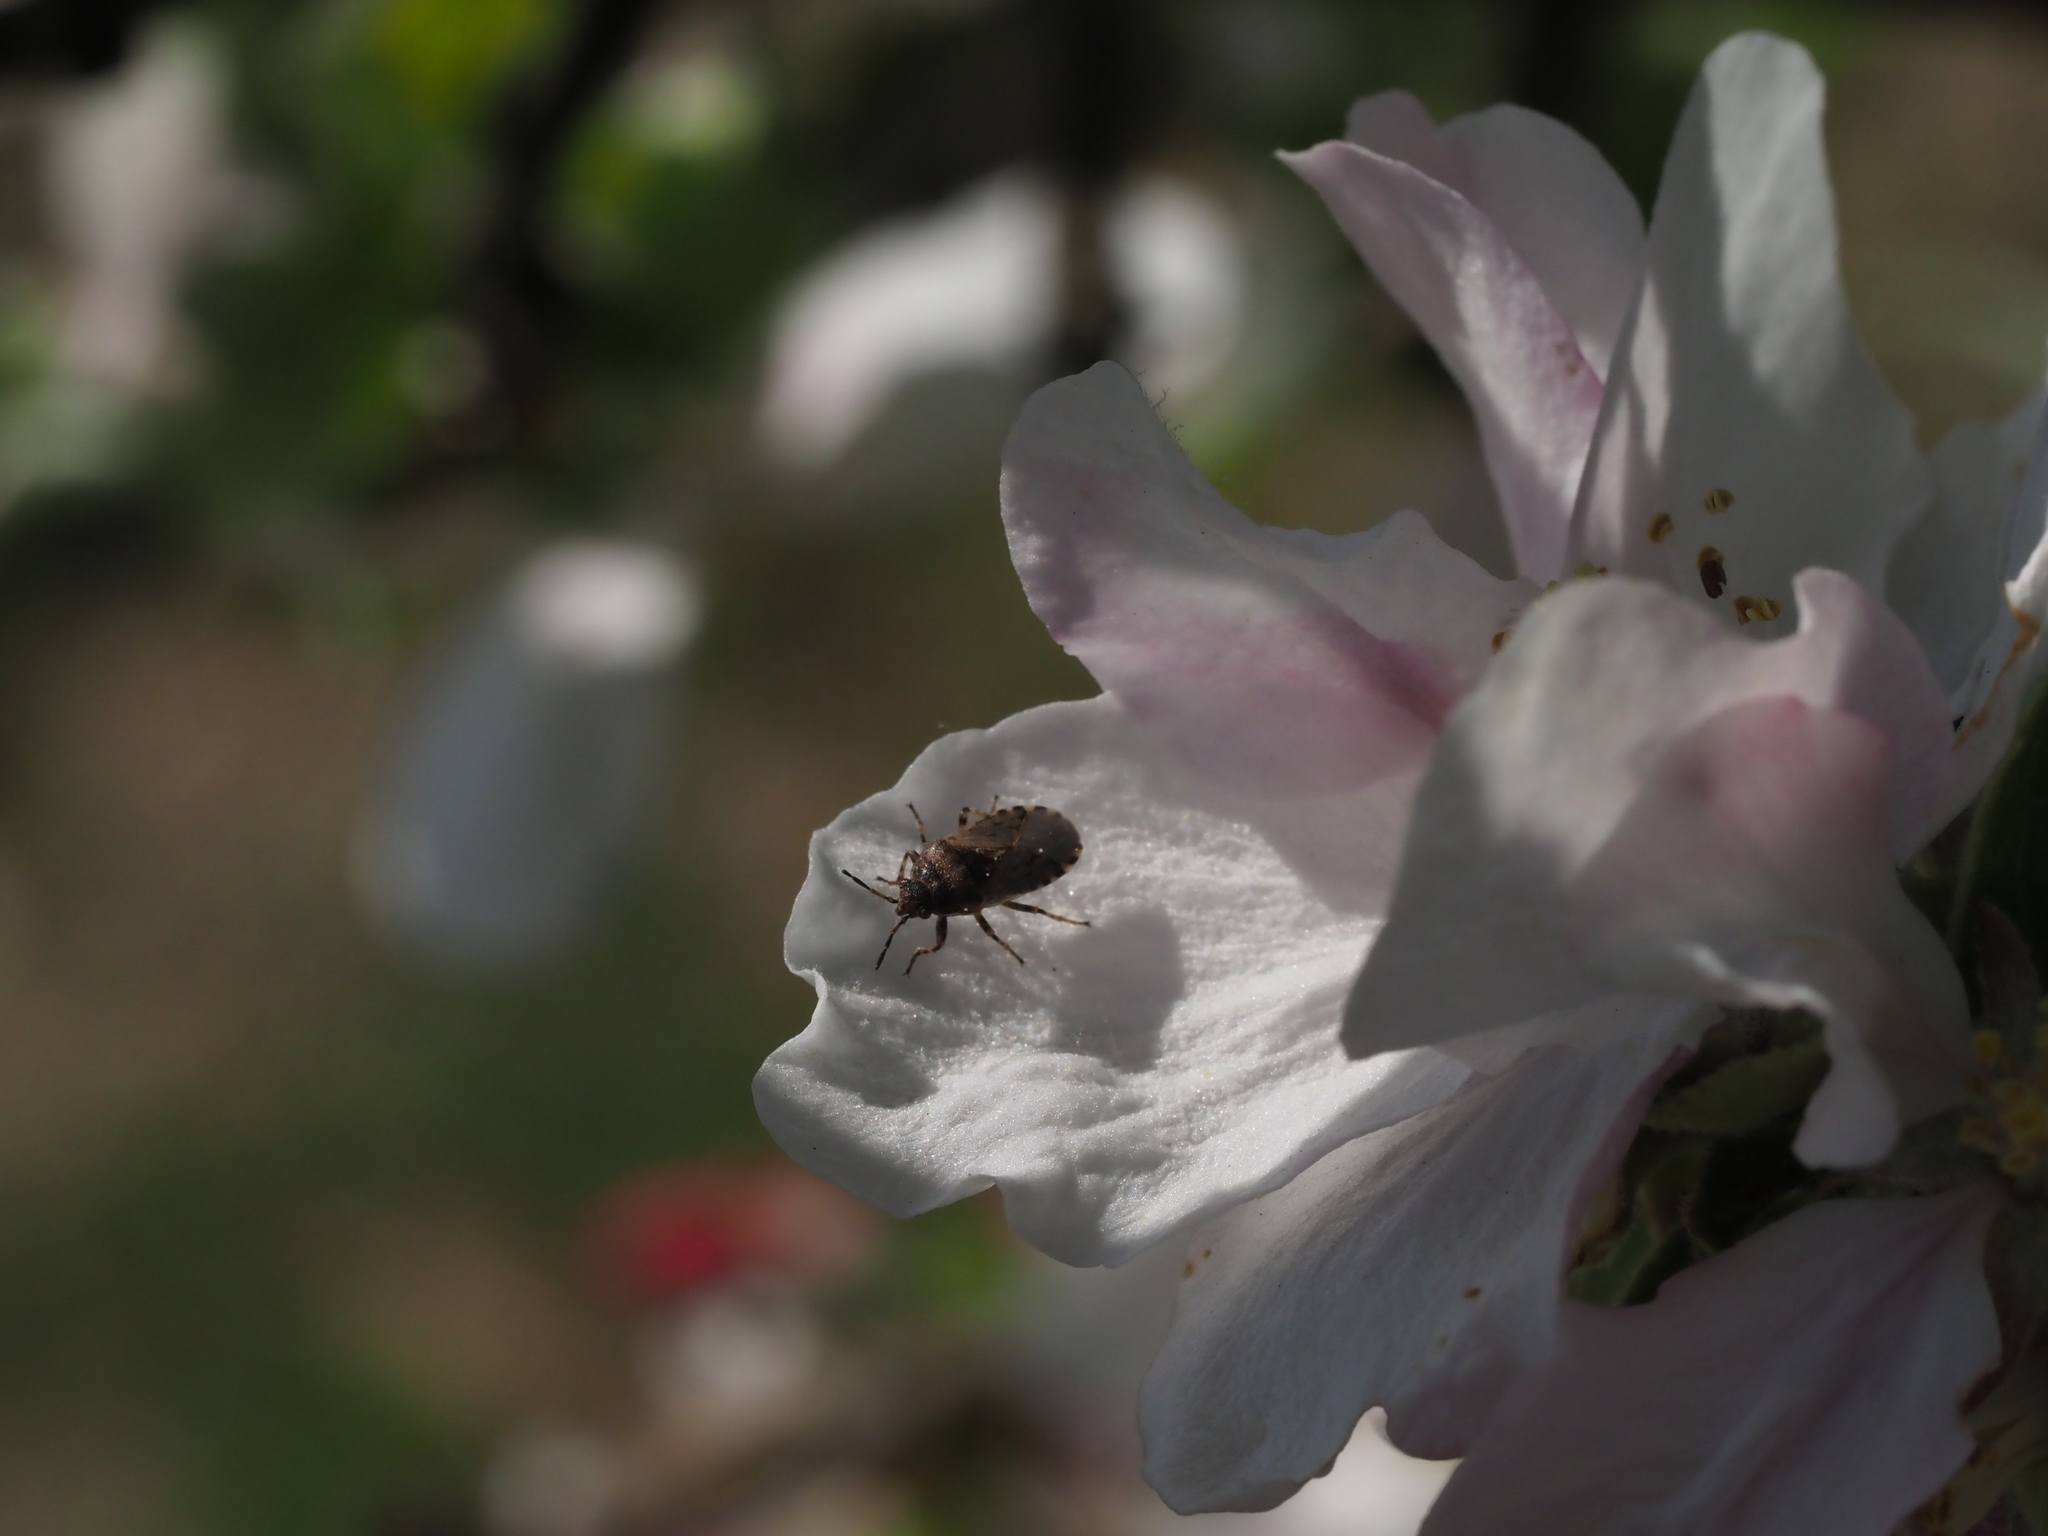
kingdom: Animalia
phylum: Arthropoda
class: Insecta
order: Hemiptera
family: Heterogastridae
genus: Platyplax
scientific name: Platyplax salviae
